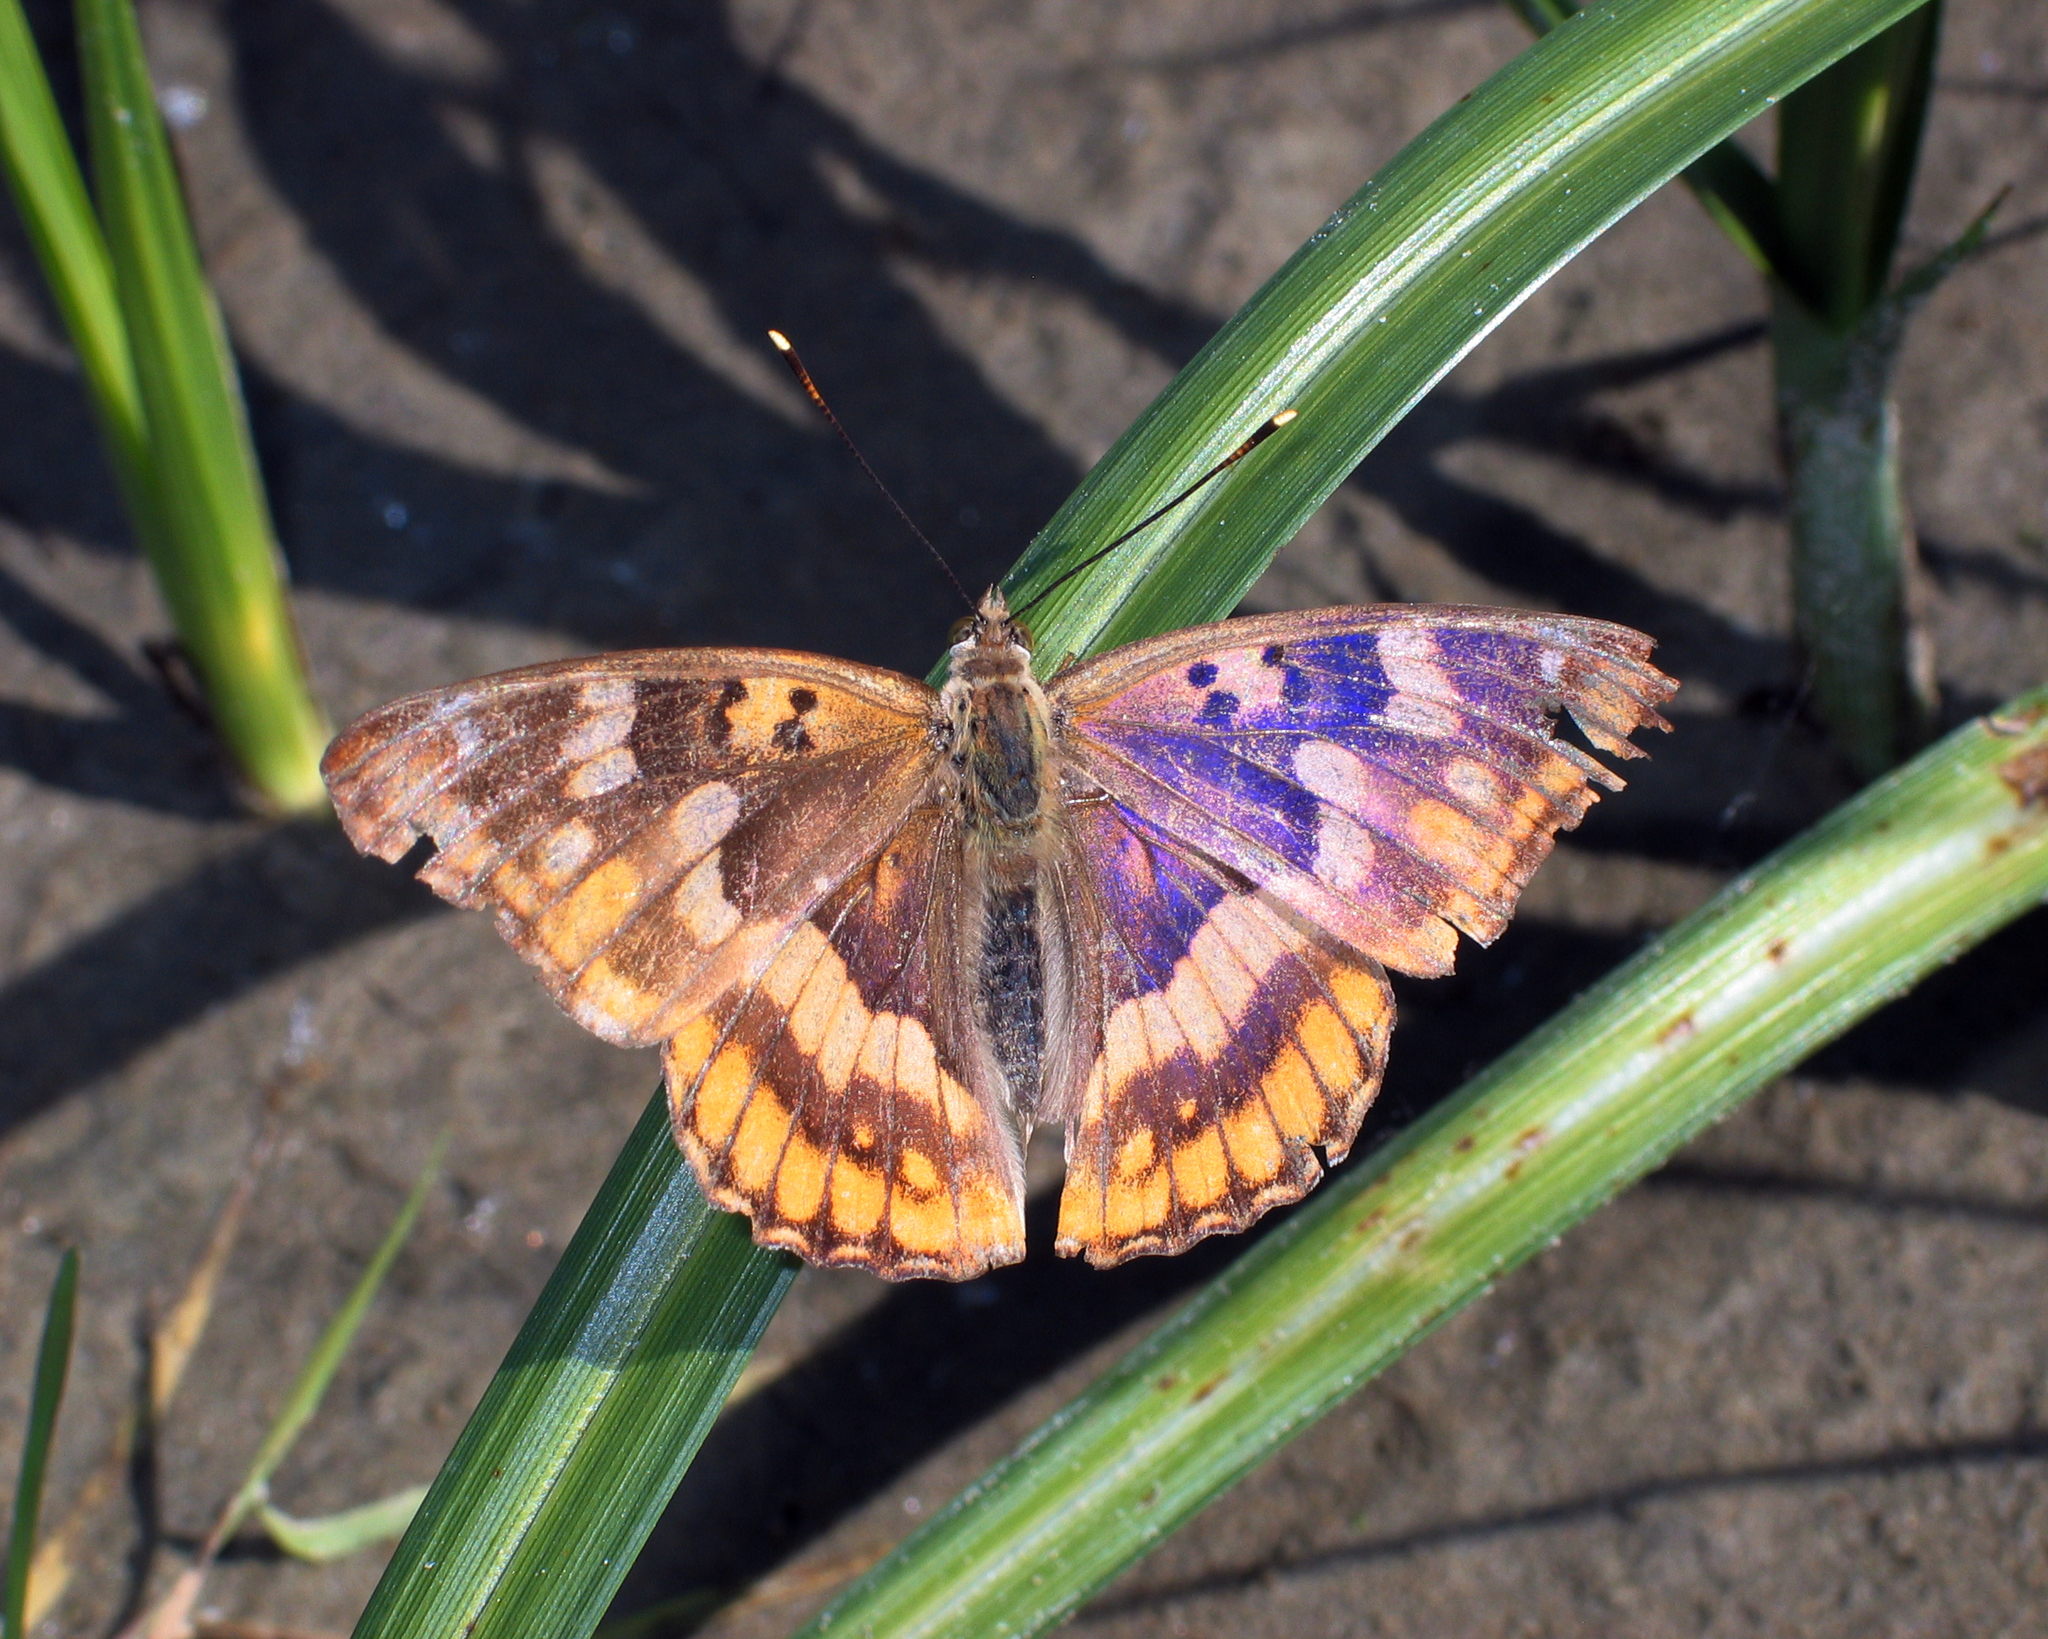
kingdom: Animalia
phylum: Arthropoda
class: Insecta
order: Lepidoptera
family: Nymphalidae
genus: Apatura
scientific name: Apatura ilia
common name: Lesser purple emperor
